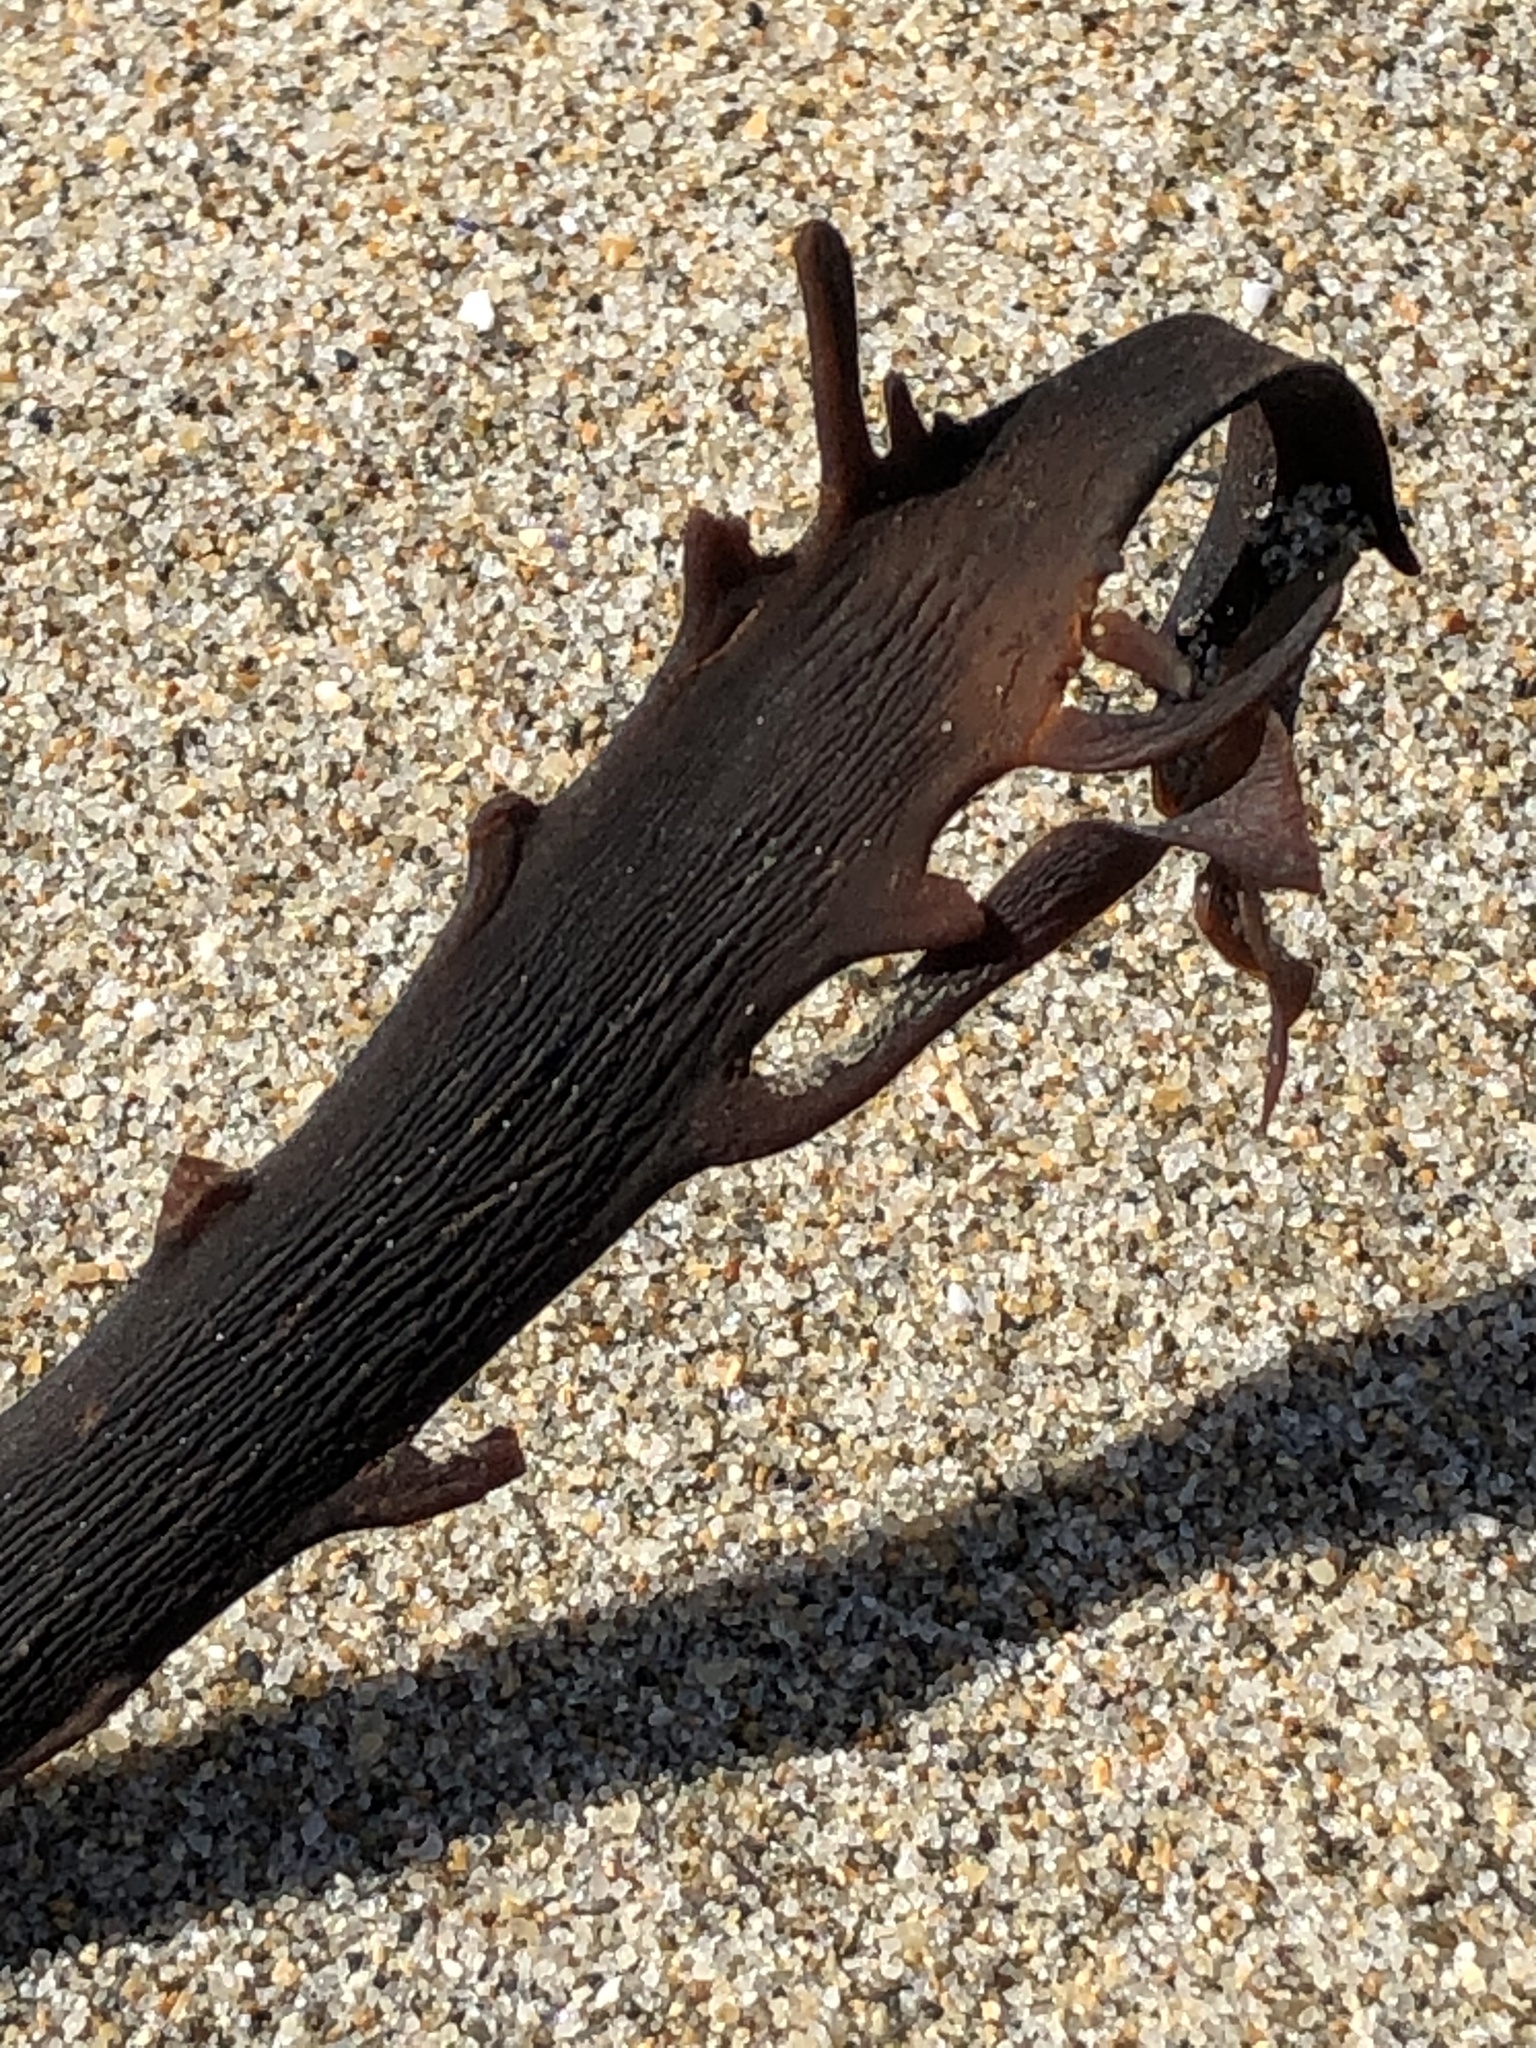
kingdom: Chromista
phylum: Ochrophyta
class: Phaeophyceae
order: Laminariales
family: Alariaceae
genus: Pterygophora
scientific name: Pterygophora californica
